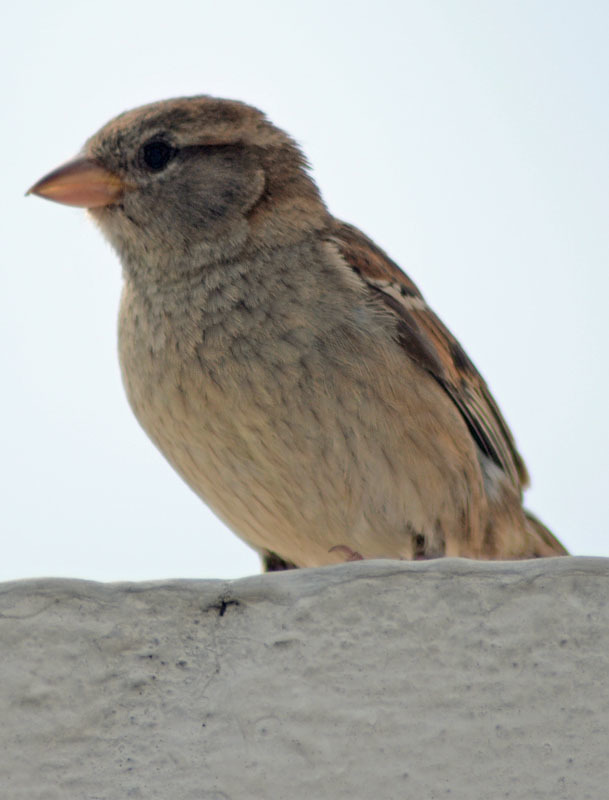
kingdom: Animalia
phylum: Chordata
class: Aves
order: Passeriformes
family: Passeridae
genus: Passer
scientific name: Passer domesticus
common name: House sparrow
